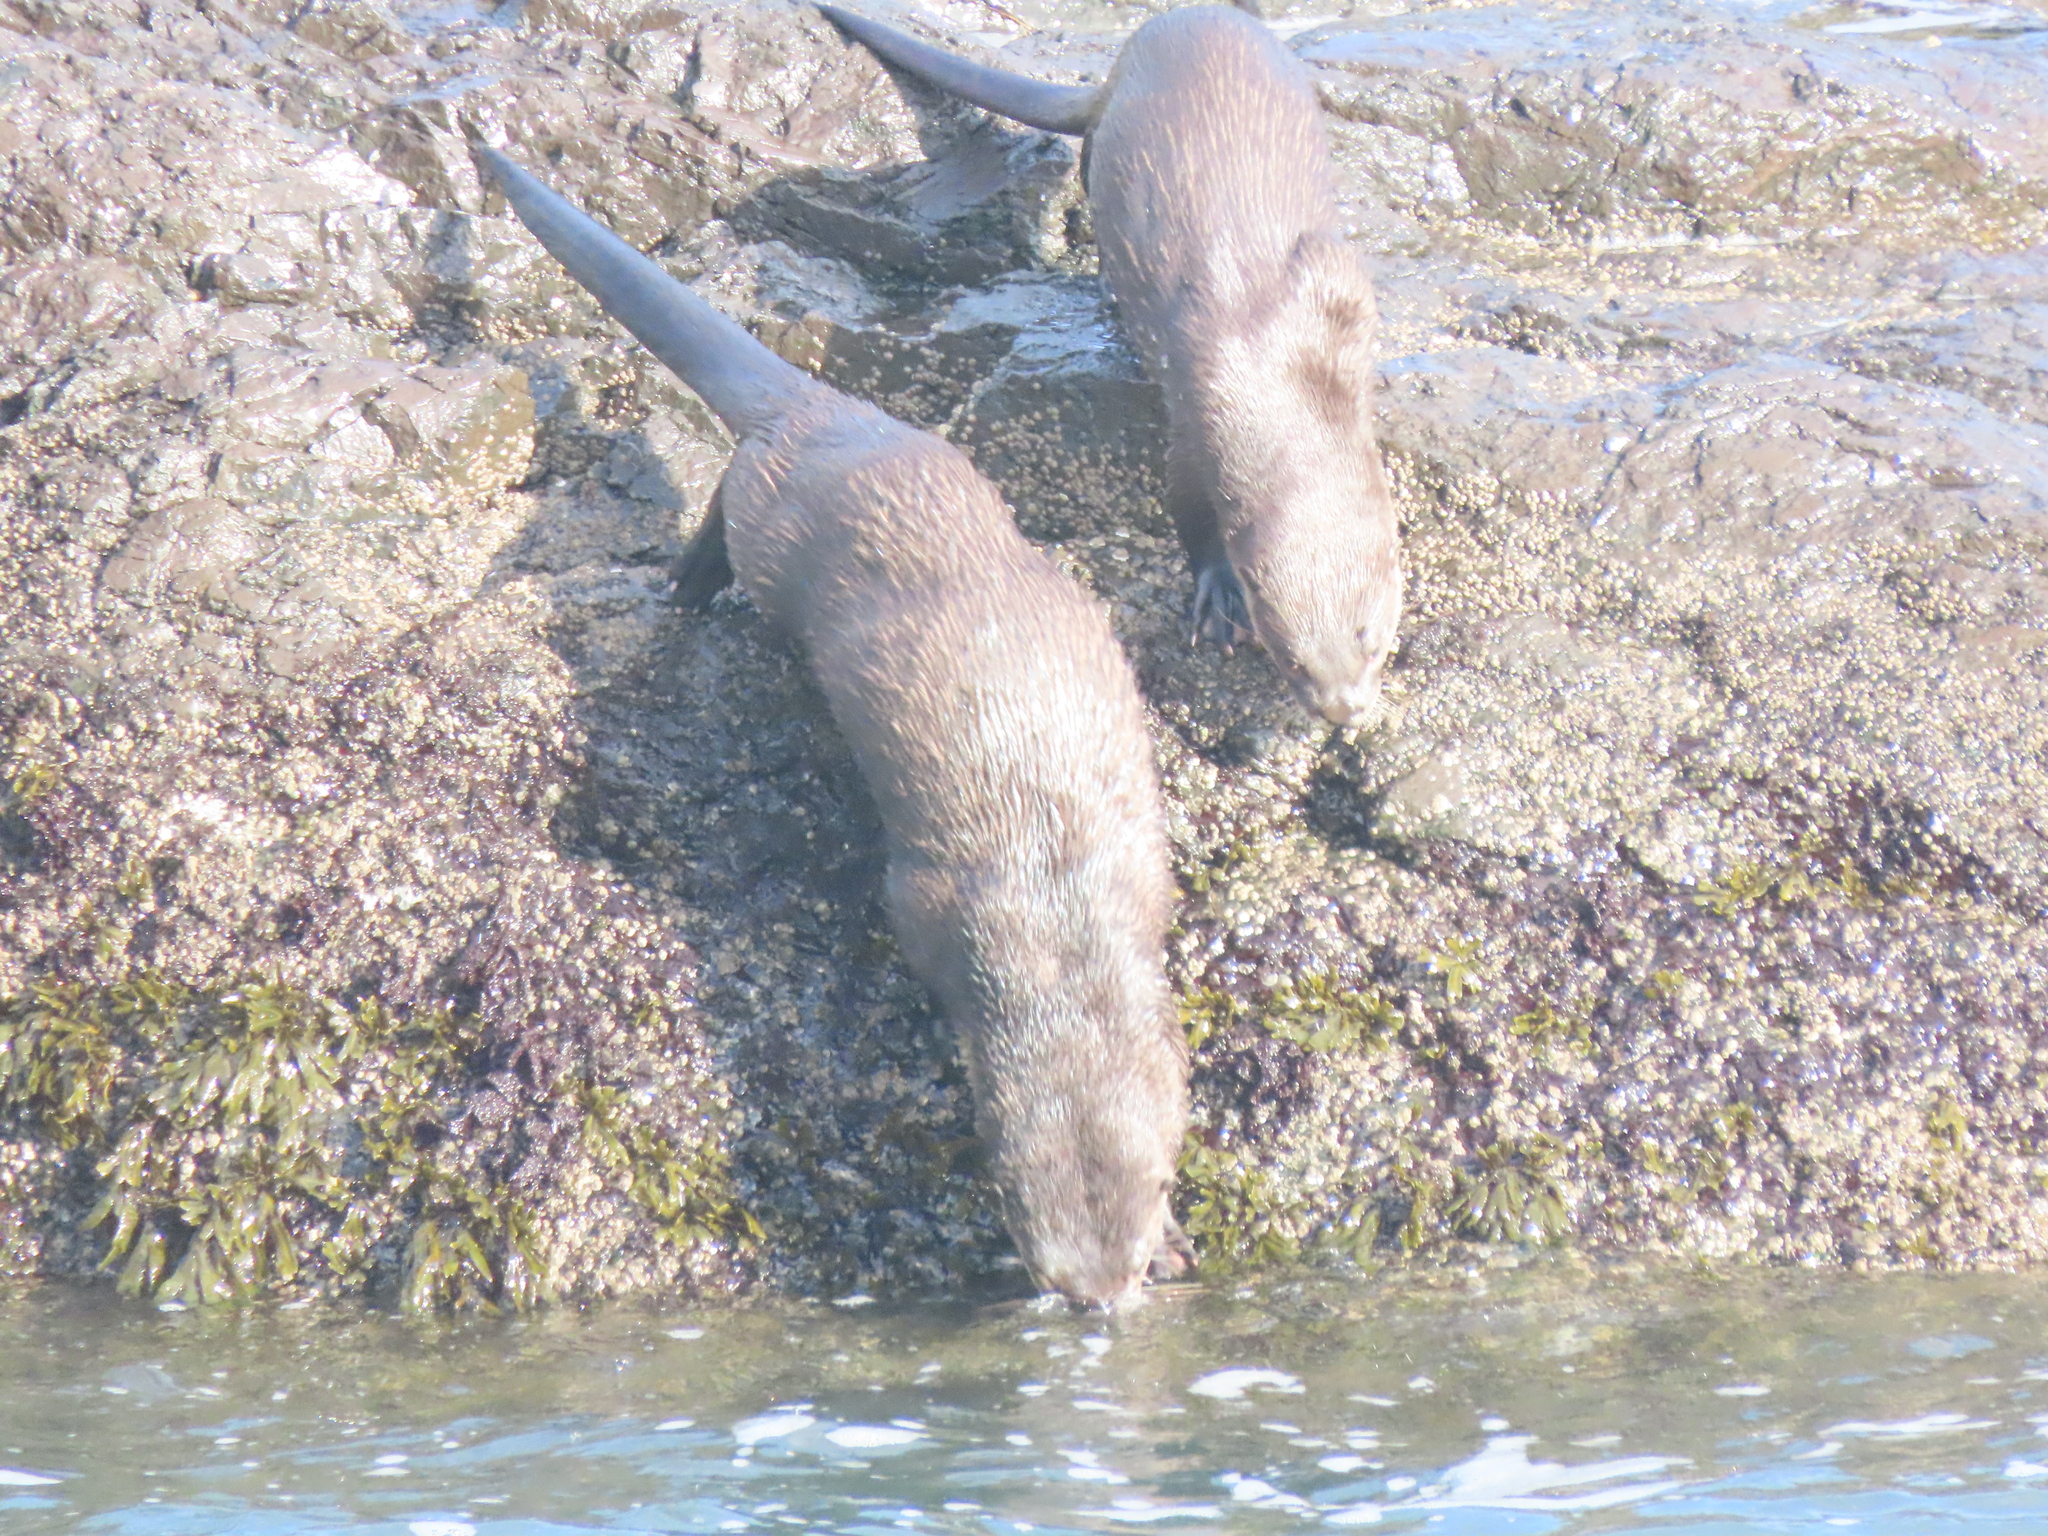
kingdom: Animalia
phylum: Chordata
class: Mammalia
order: Carnivora
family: Mustelidae
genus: Lontra
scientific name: Lontra canadensis
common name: North american river otter
